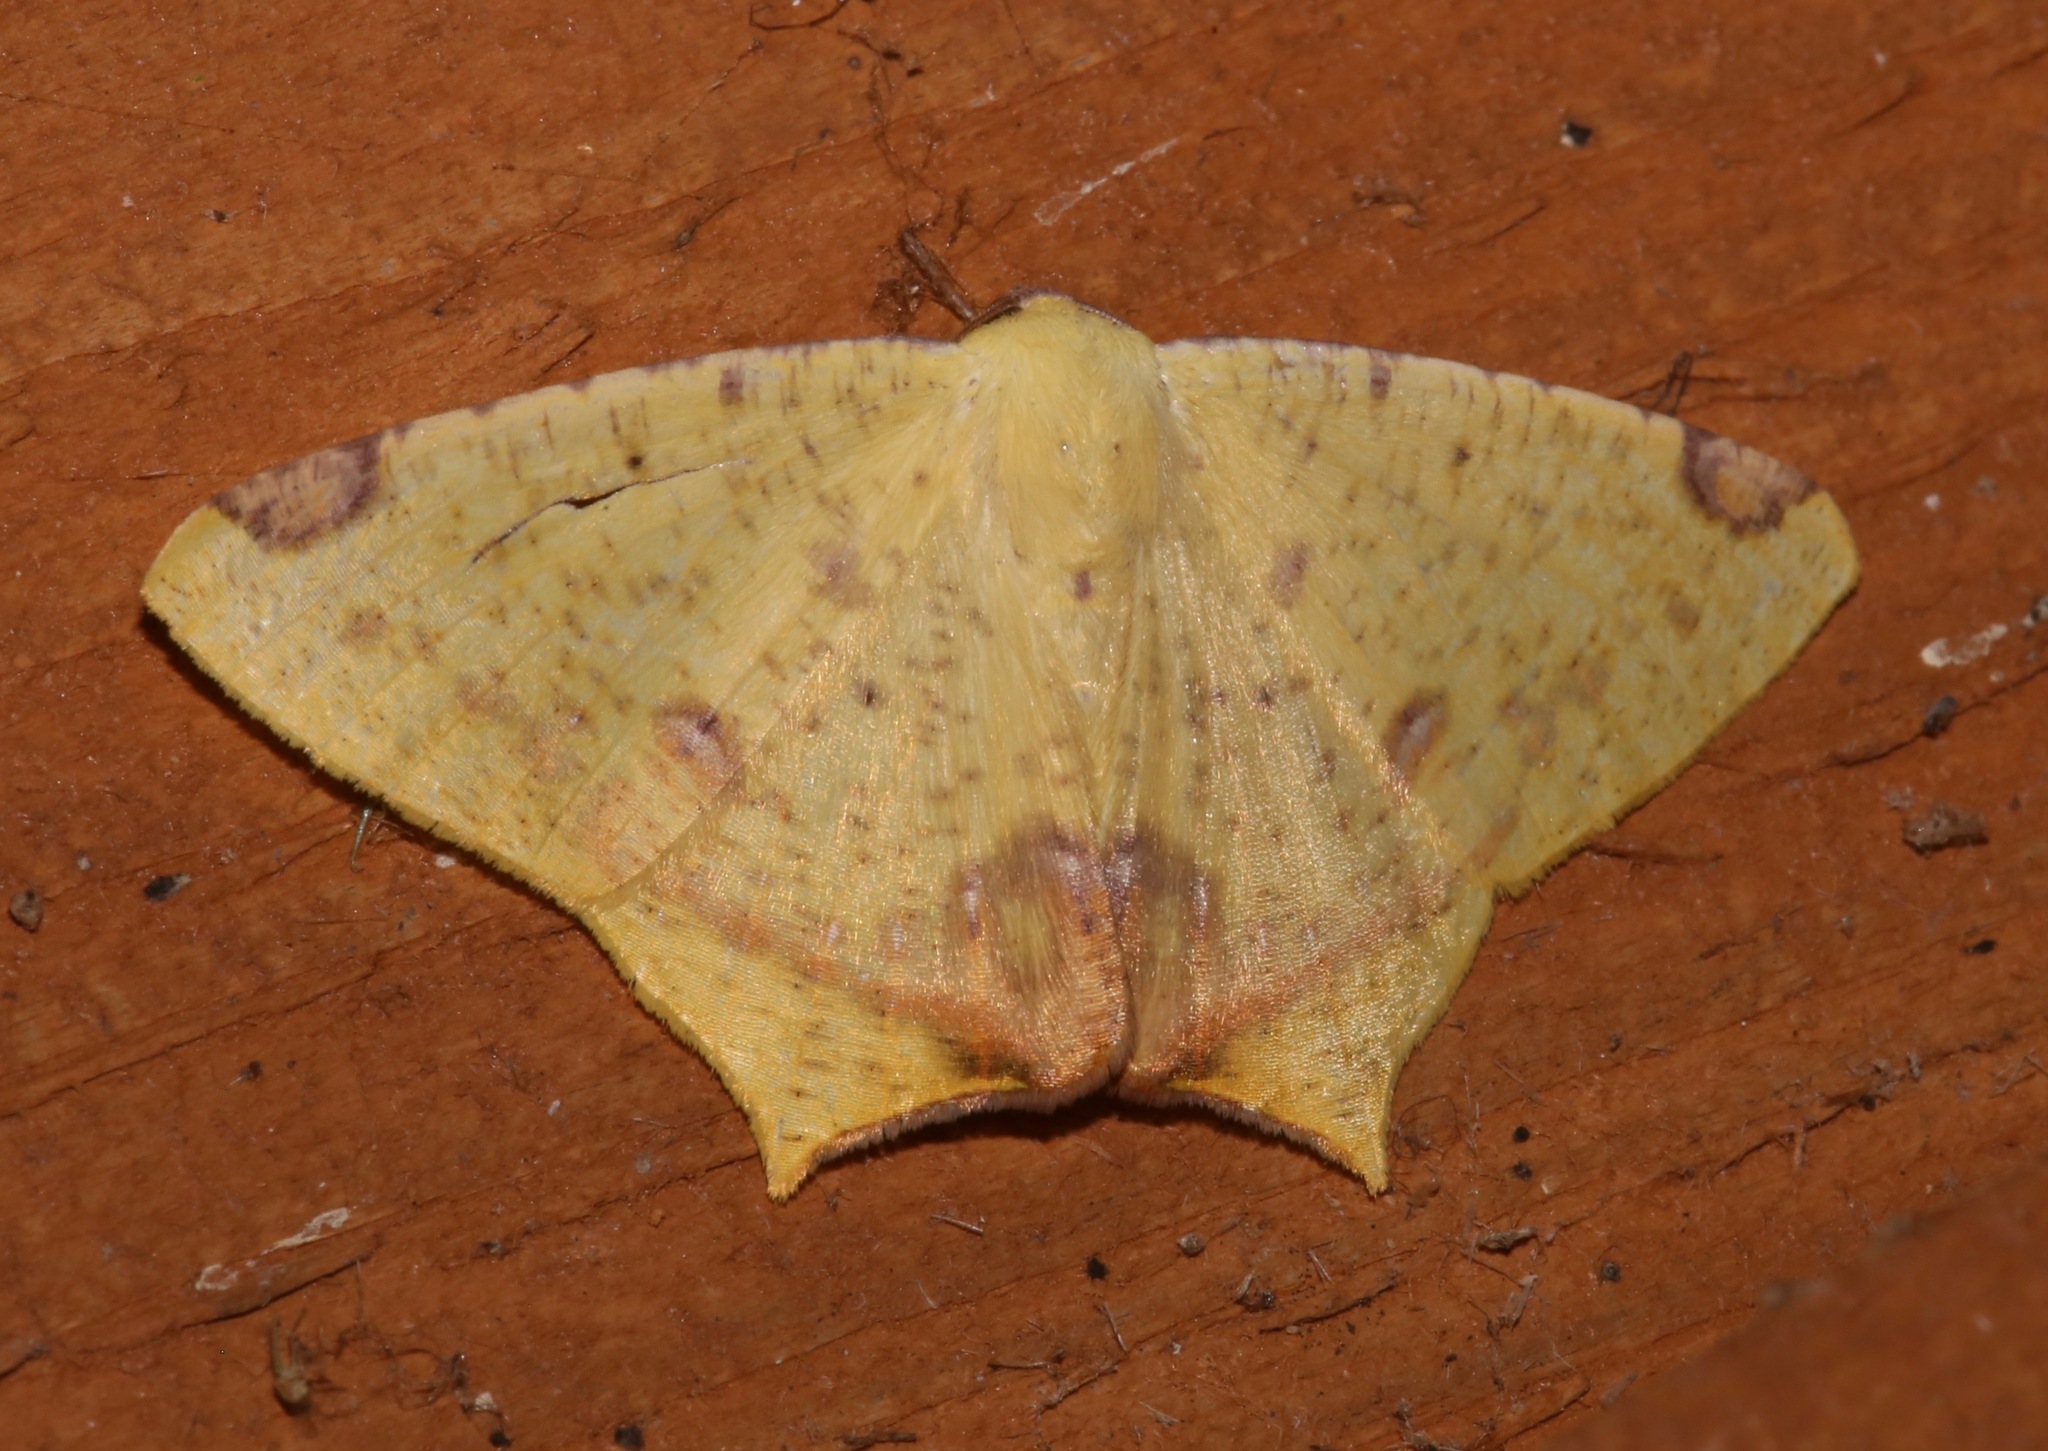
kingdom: Animalia
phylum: Arthropoda
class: Insecta
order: Lepidoptera
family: Geometridae
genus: Nepheloleuca
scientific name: Nepheloleuca politia
